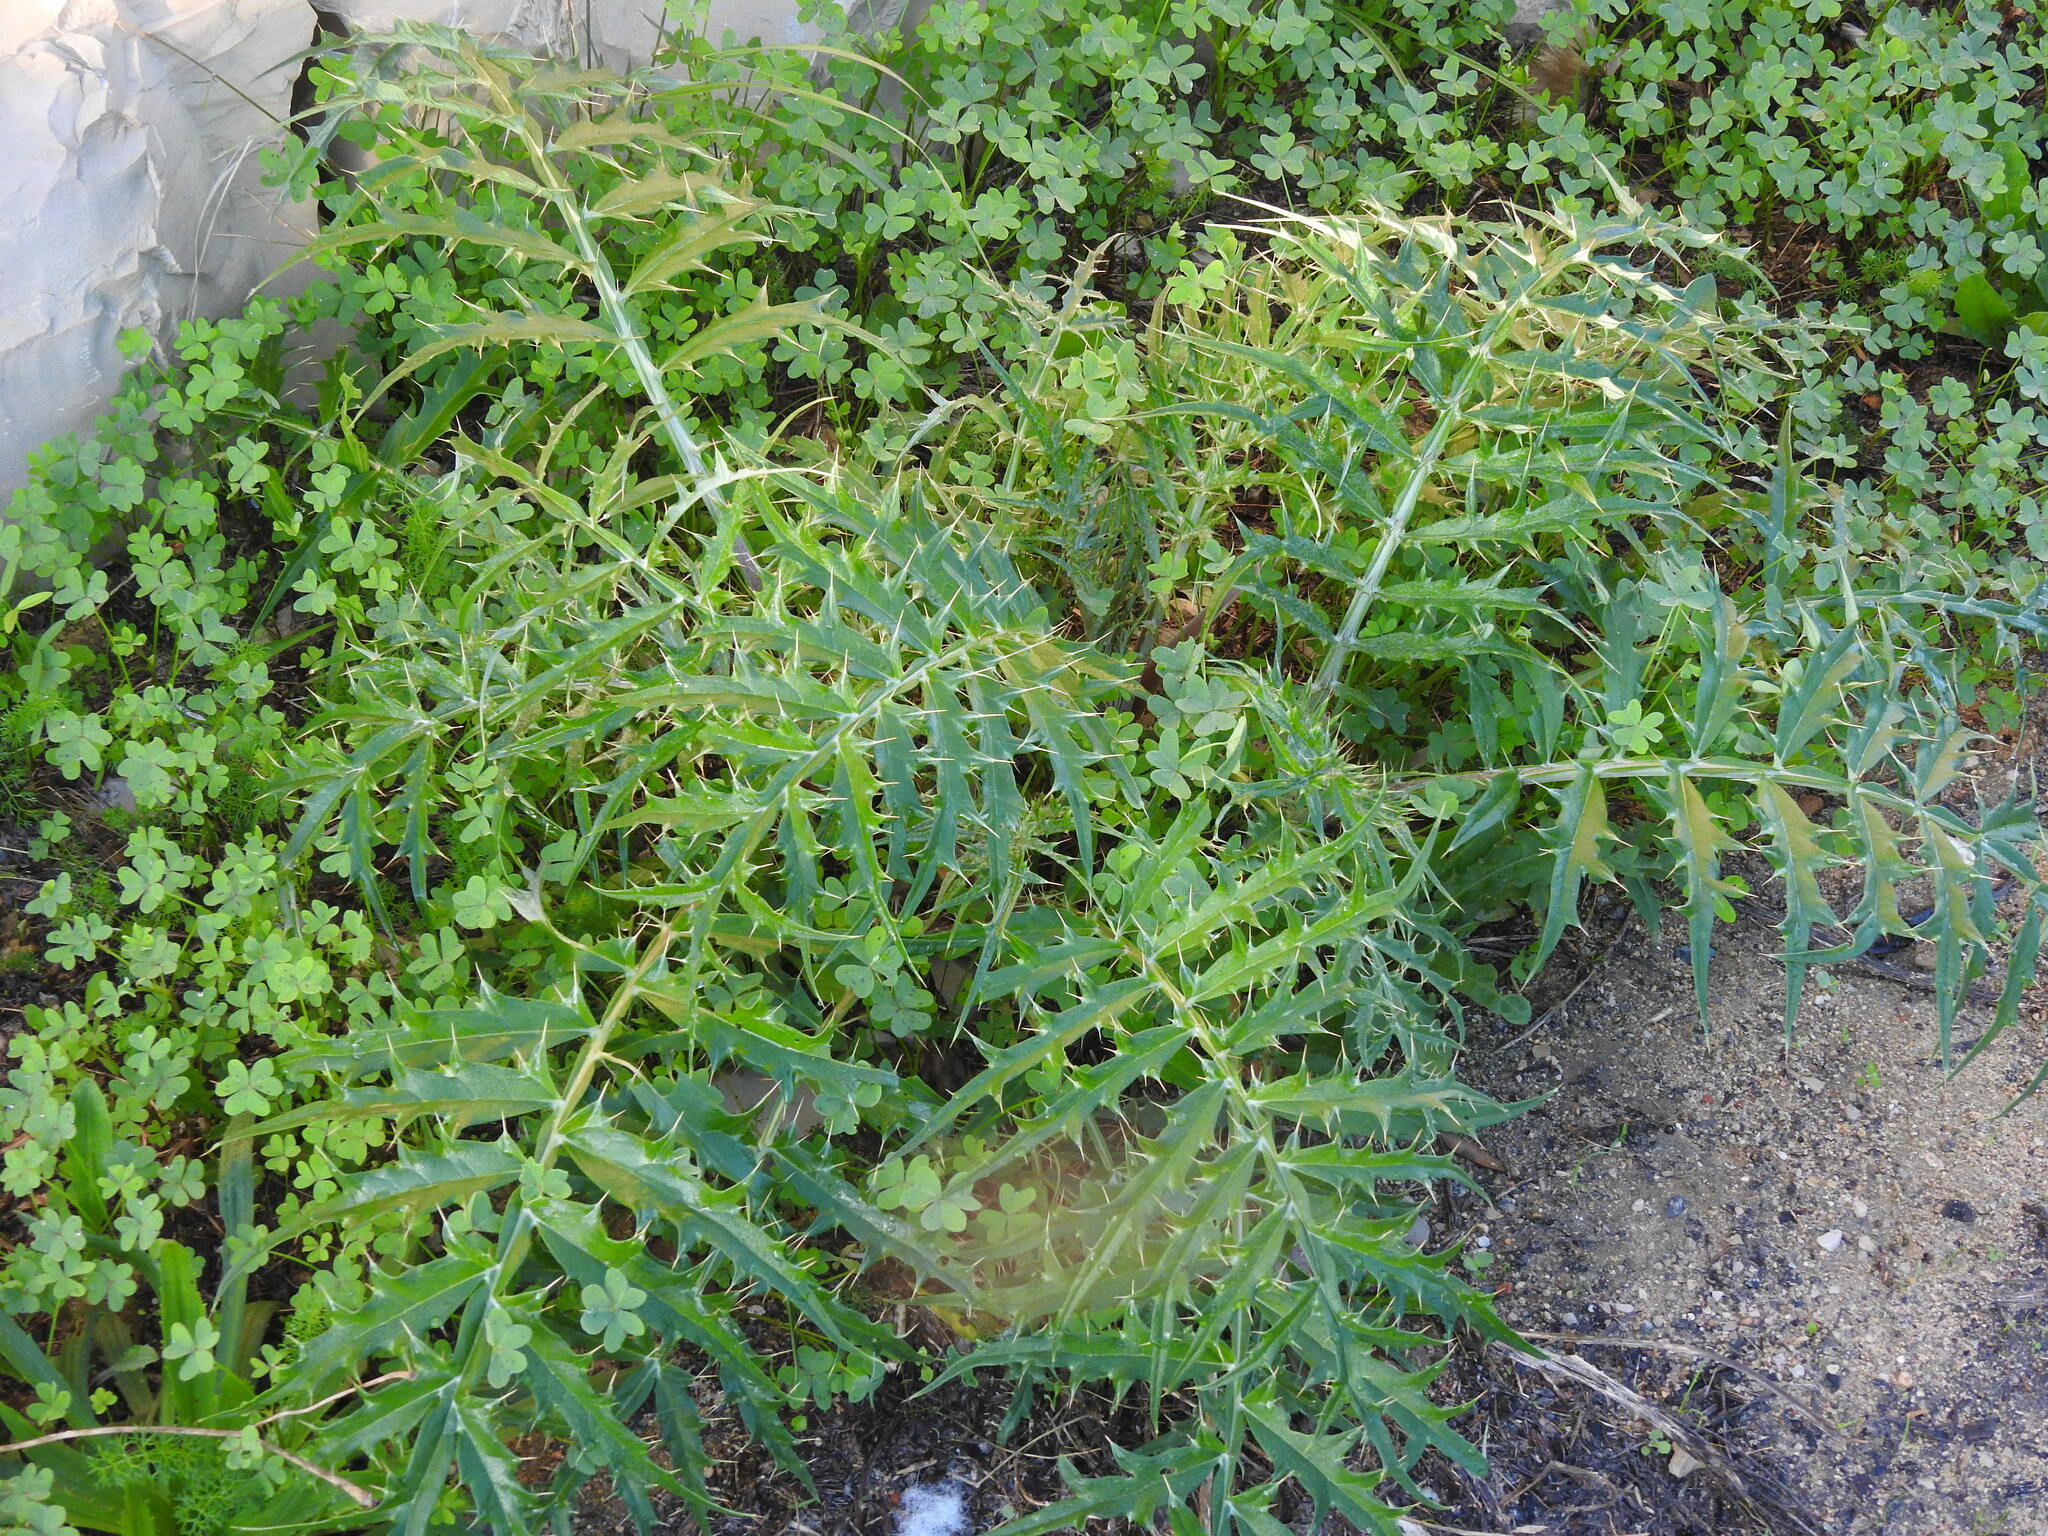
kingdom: Plantae
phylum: Tracheophyta
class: Magnoliopsida
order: Asterales
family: Asteraceae
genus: Cynara
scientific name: Cynara cardunculus
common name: Globe artichoke
